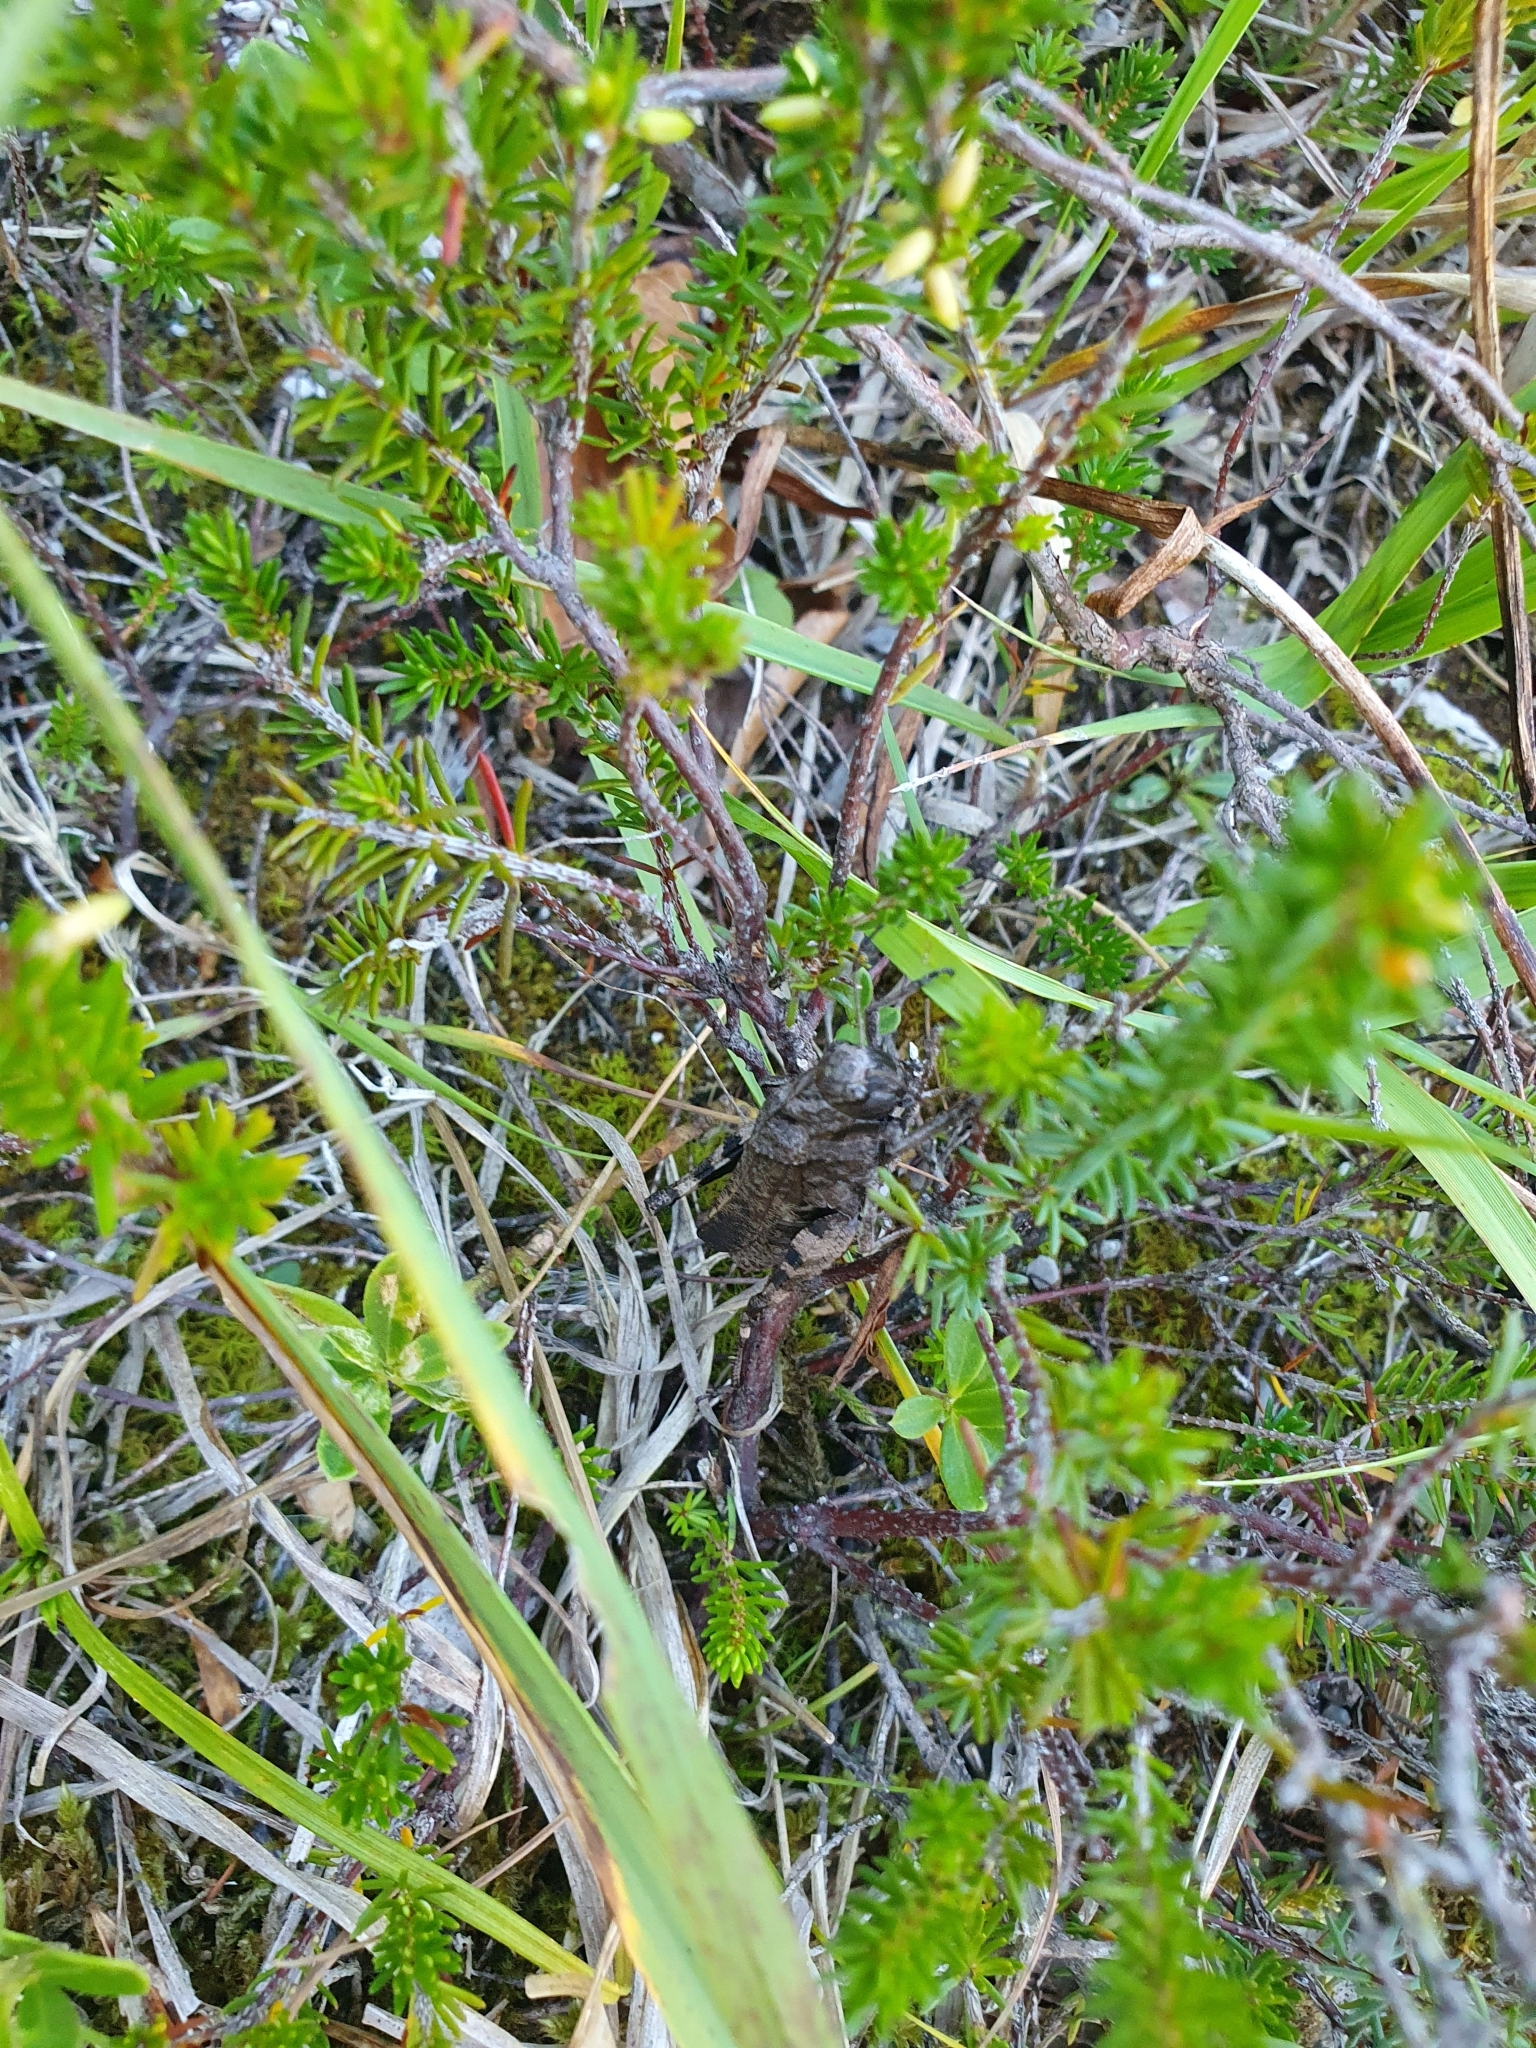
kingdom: Animalia
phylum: Arthropoda
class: Insecta
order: Orthoptera
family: Acrididae
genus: Psophus
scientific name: Psophus stridulus
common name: Rattle grasshopper
